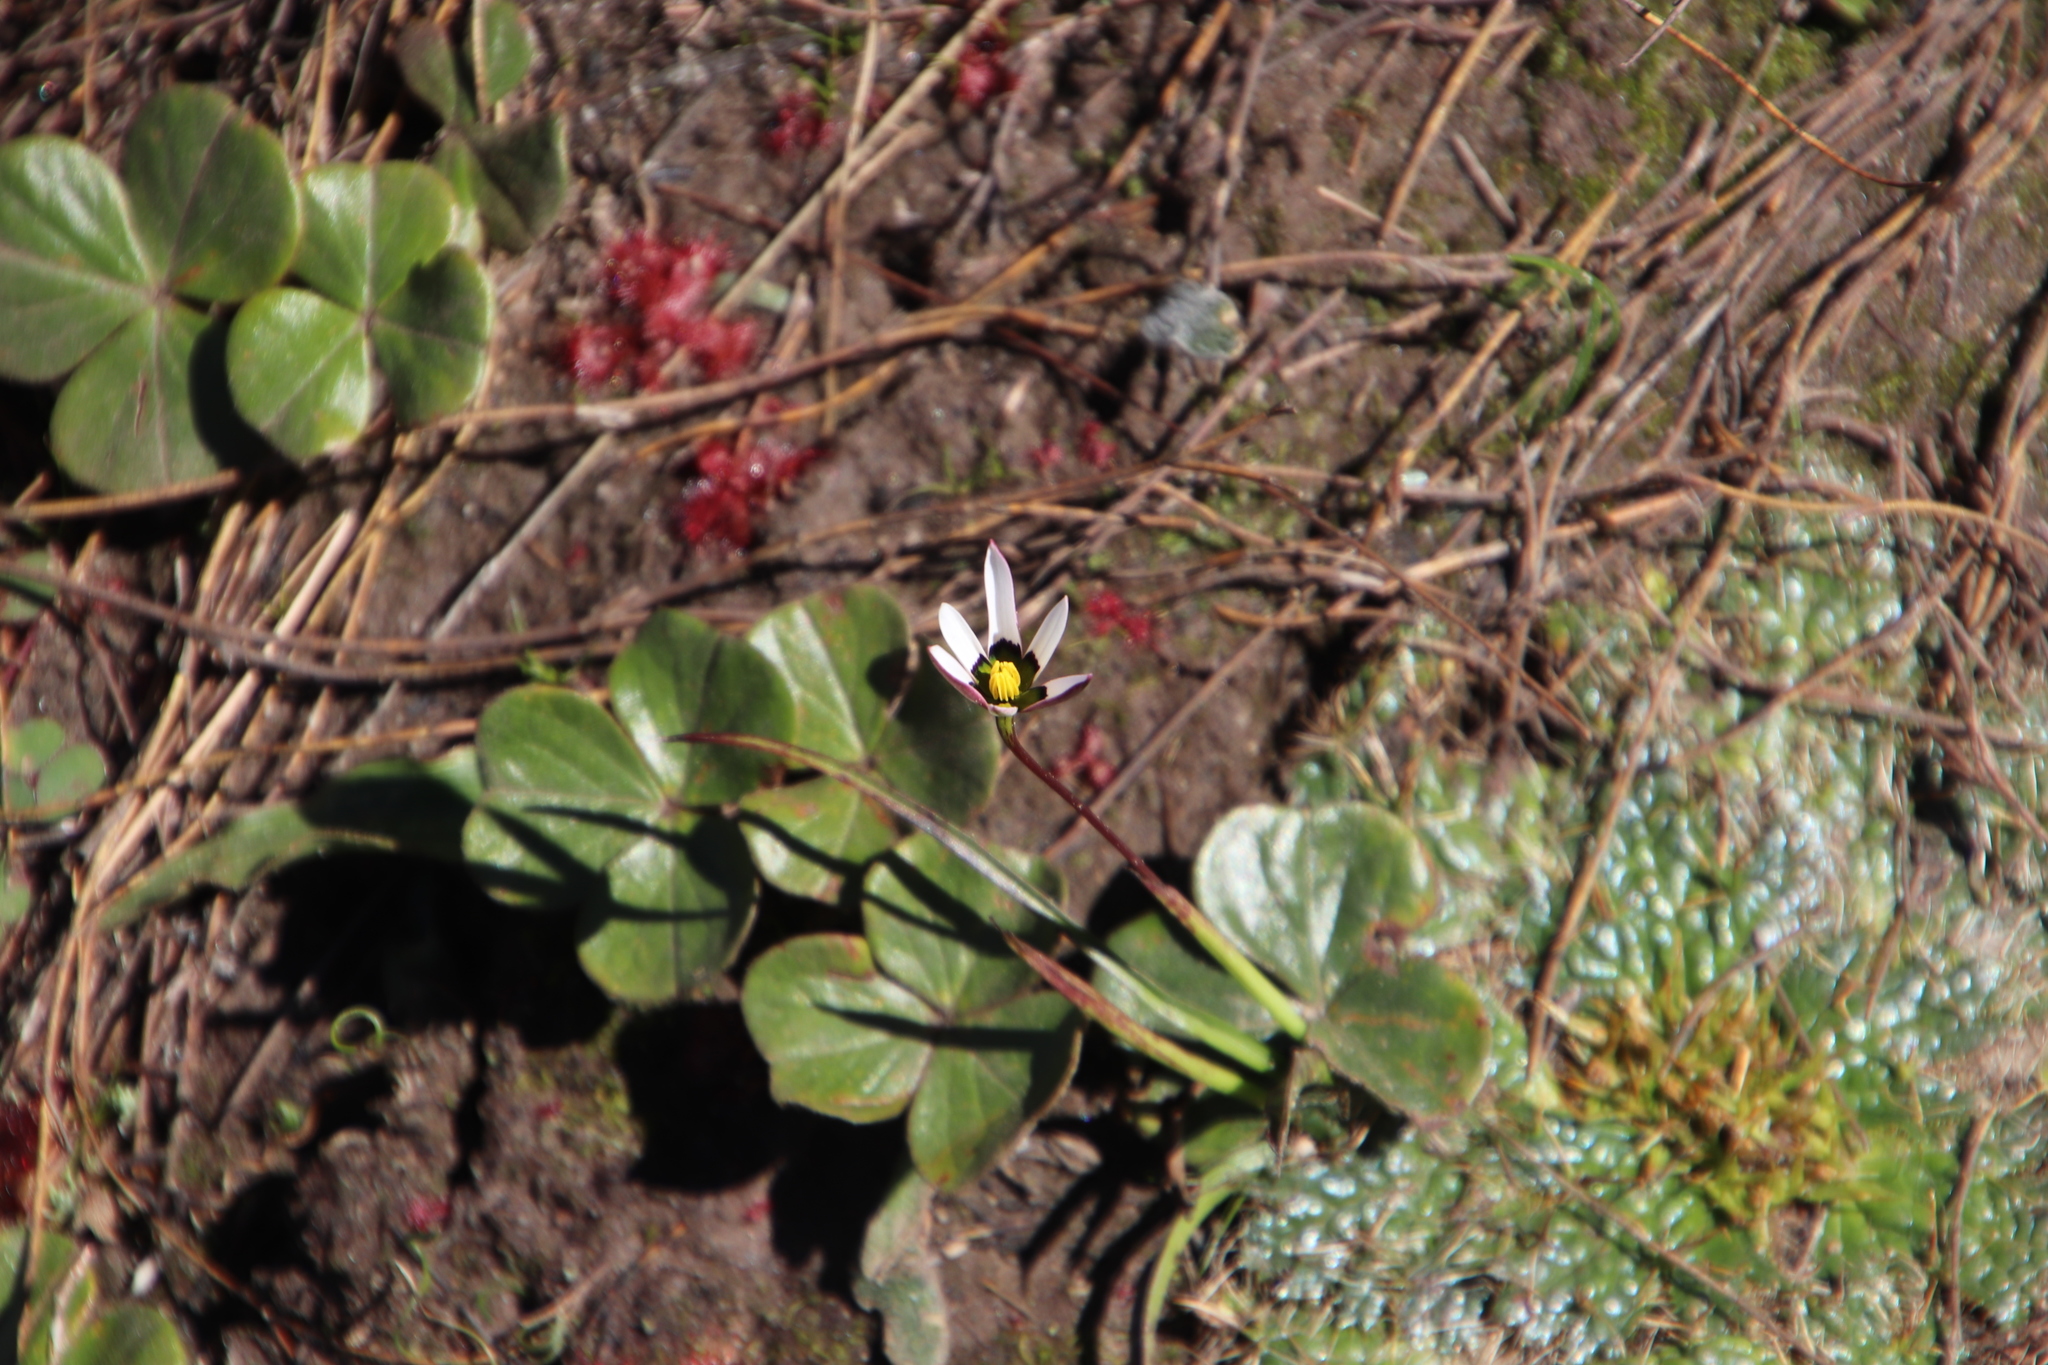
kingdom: Plantae
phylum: Tracheophyta
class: Liliopsida
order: Asparagales
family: Hypoxidaceae
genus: Pauridia
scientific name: Pauridia capensis
